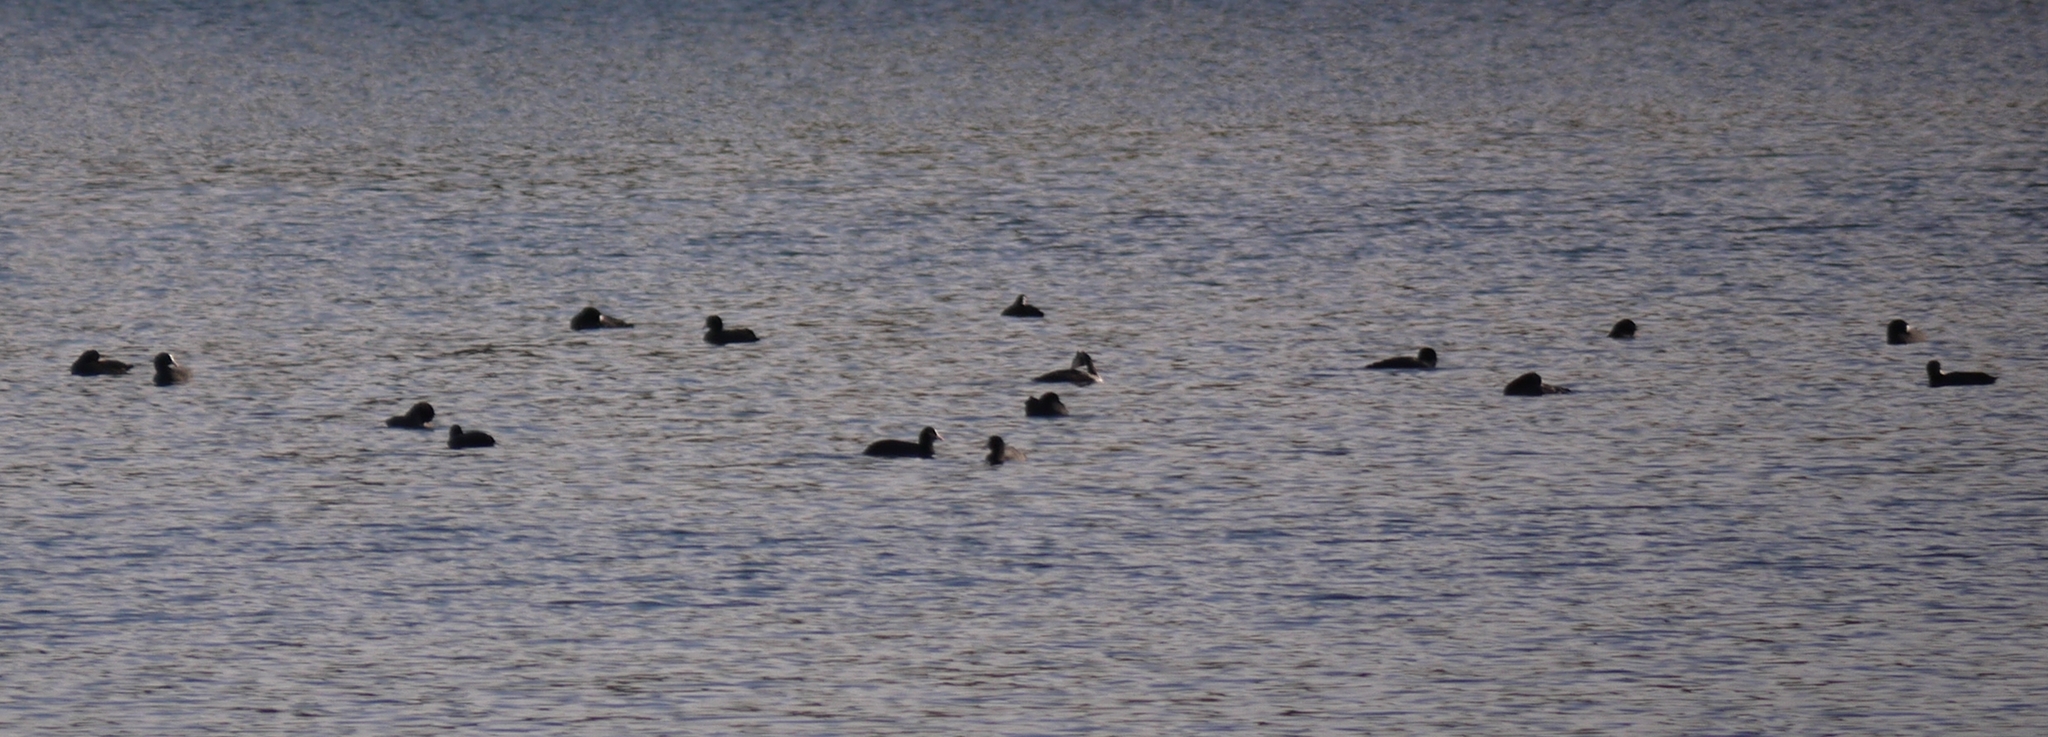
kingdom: Animalia
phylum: Chordata
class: Aves
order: Gruiformes
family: Rallidae
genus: Fulica
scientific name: Fulica atra
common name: Eurasian coot
